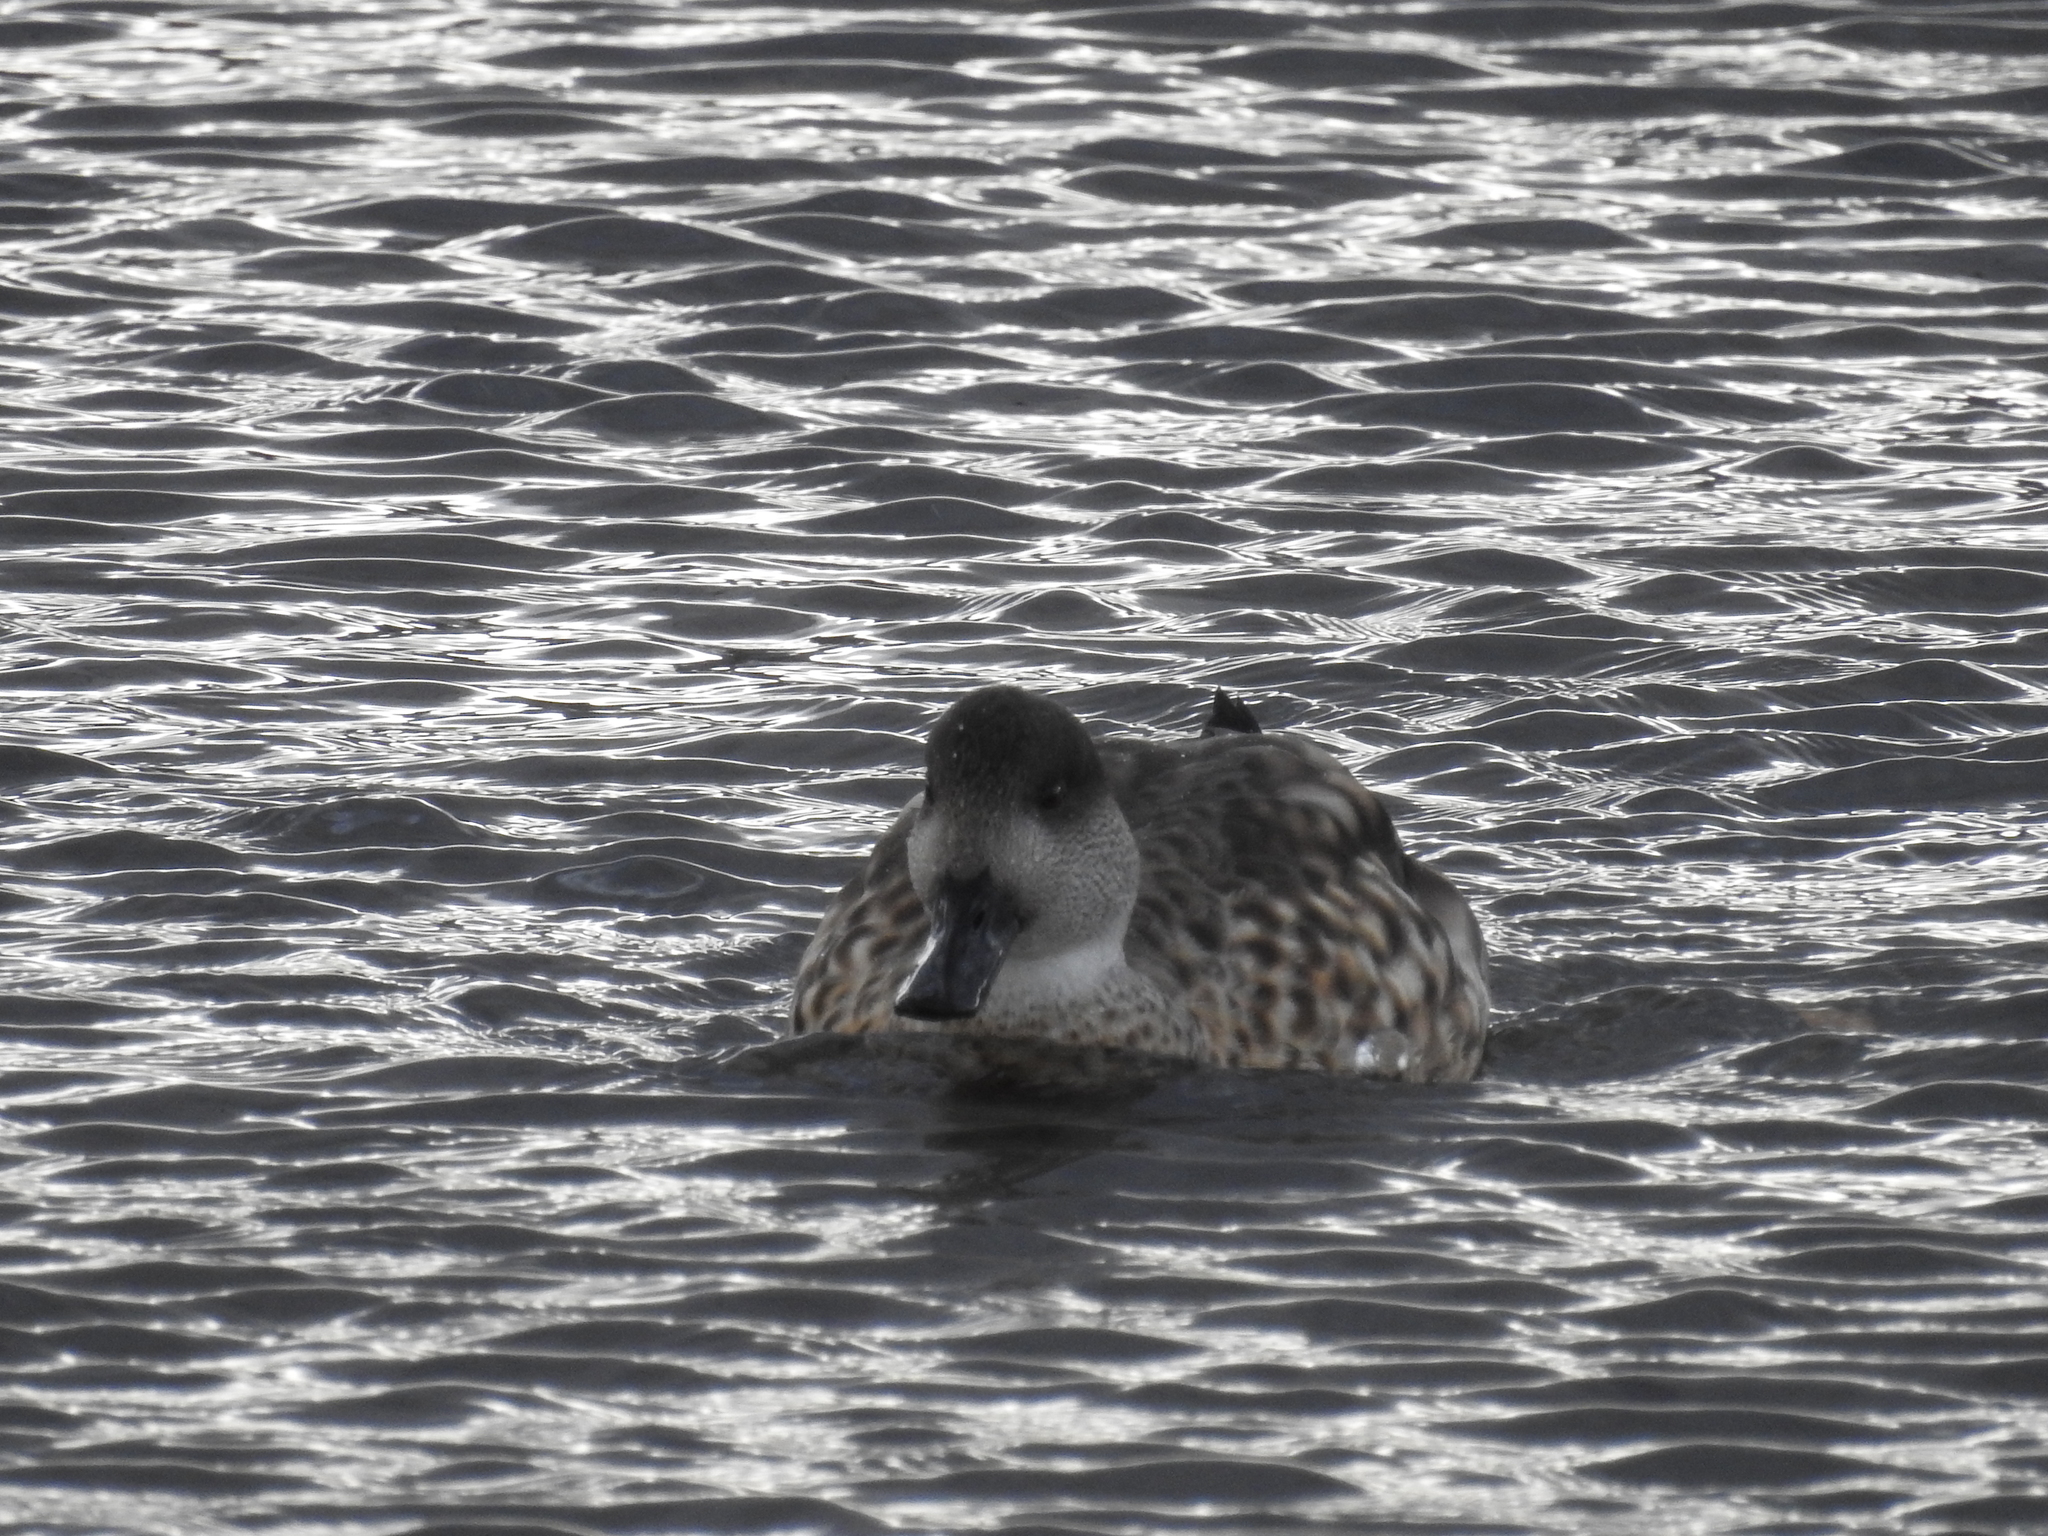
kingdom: Animalia
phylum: Chordata
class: Aves
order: Anseriformes
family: Anatidae
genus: Lophonetta
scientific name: Lophonetta specularioides
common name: Crested duck
